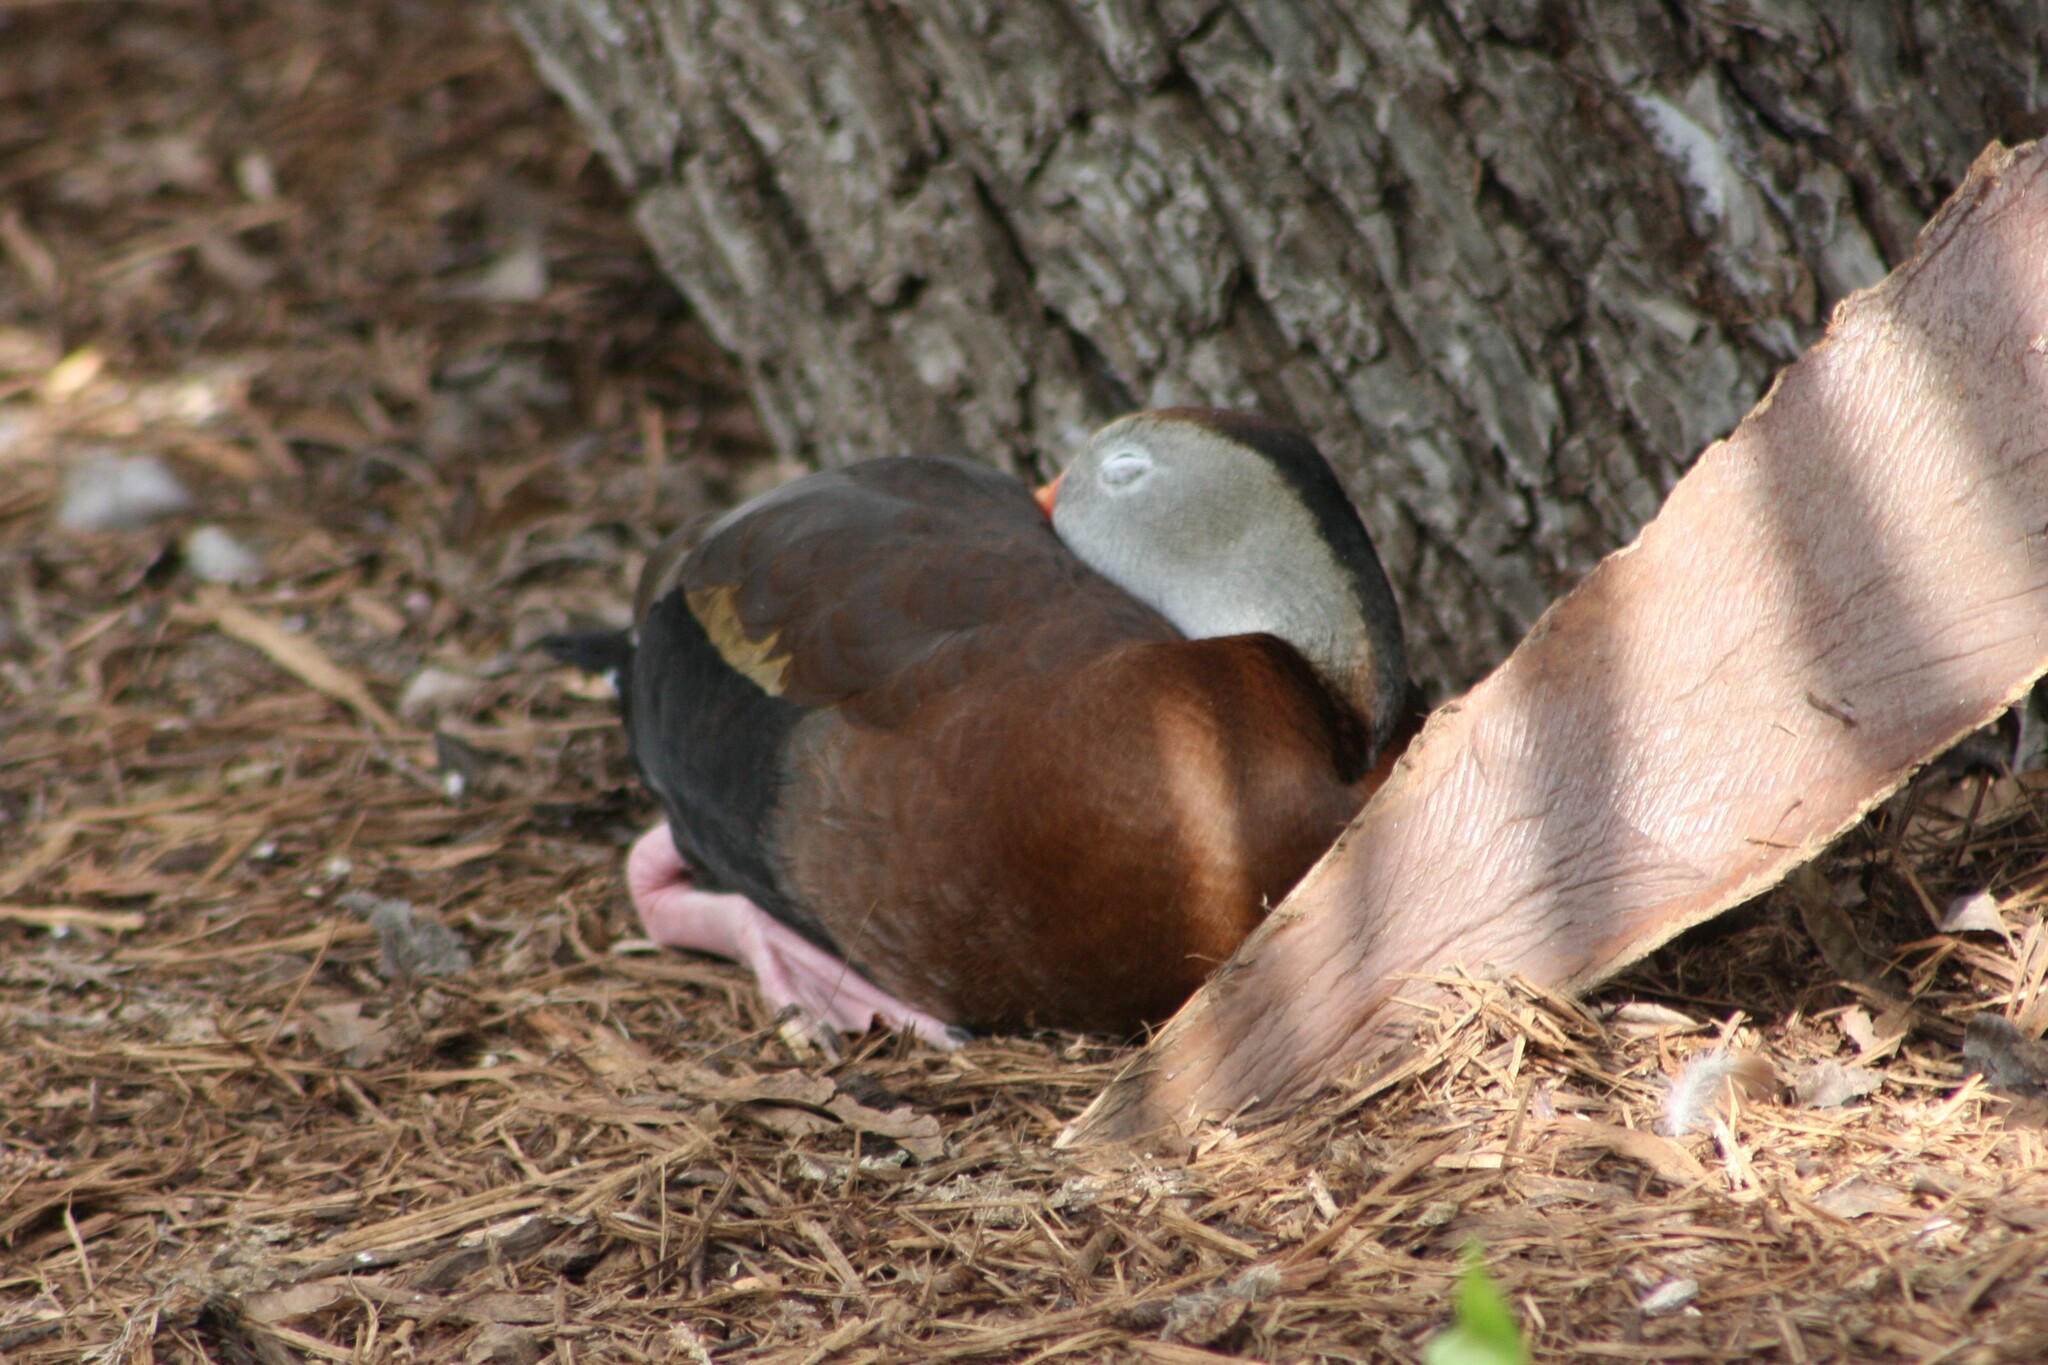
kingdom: Animalia
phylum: Chordata
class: Aves
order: Anseriformes
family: Anatidae
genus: Dendrocygna
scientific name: Dendrocygna autumnalis
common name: Black-bellied whistling duck
